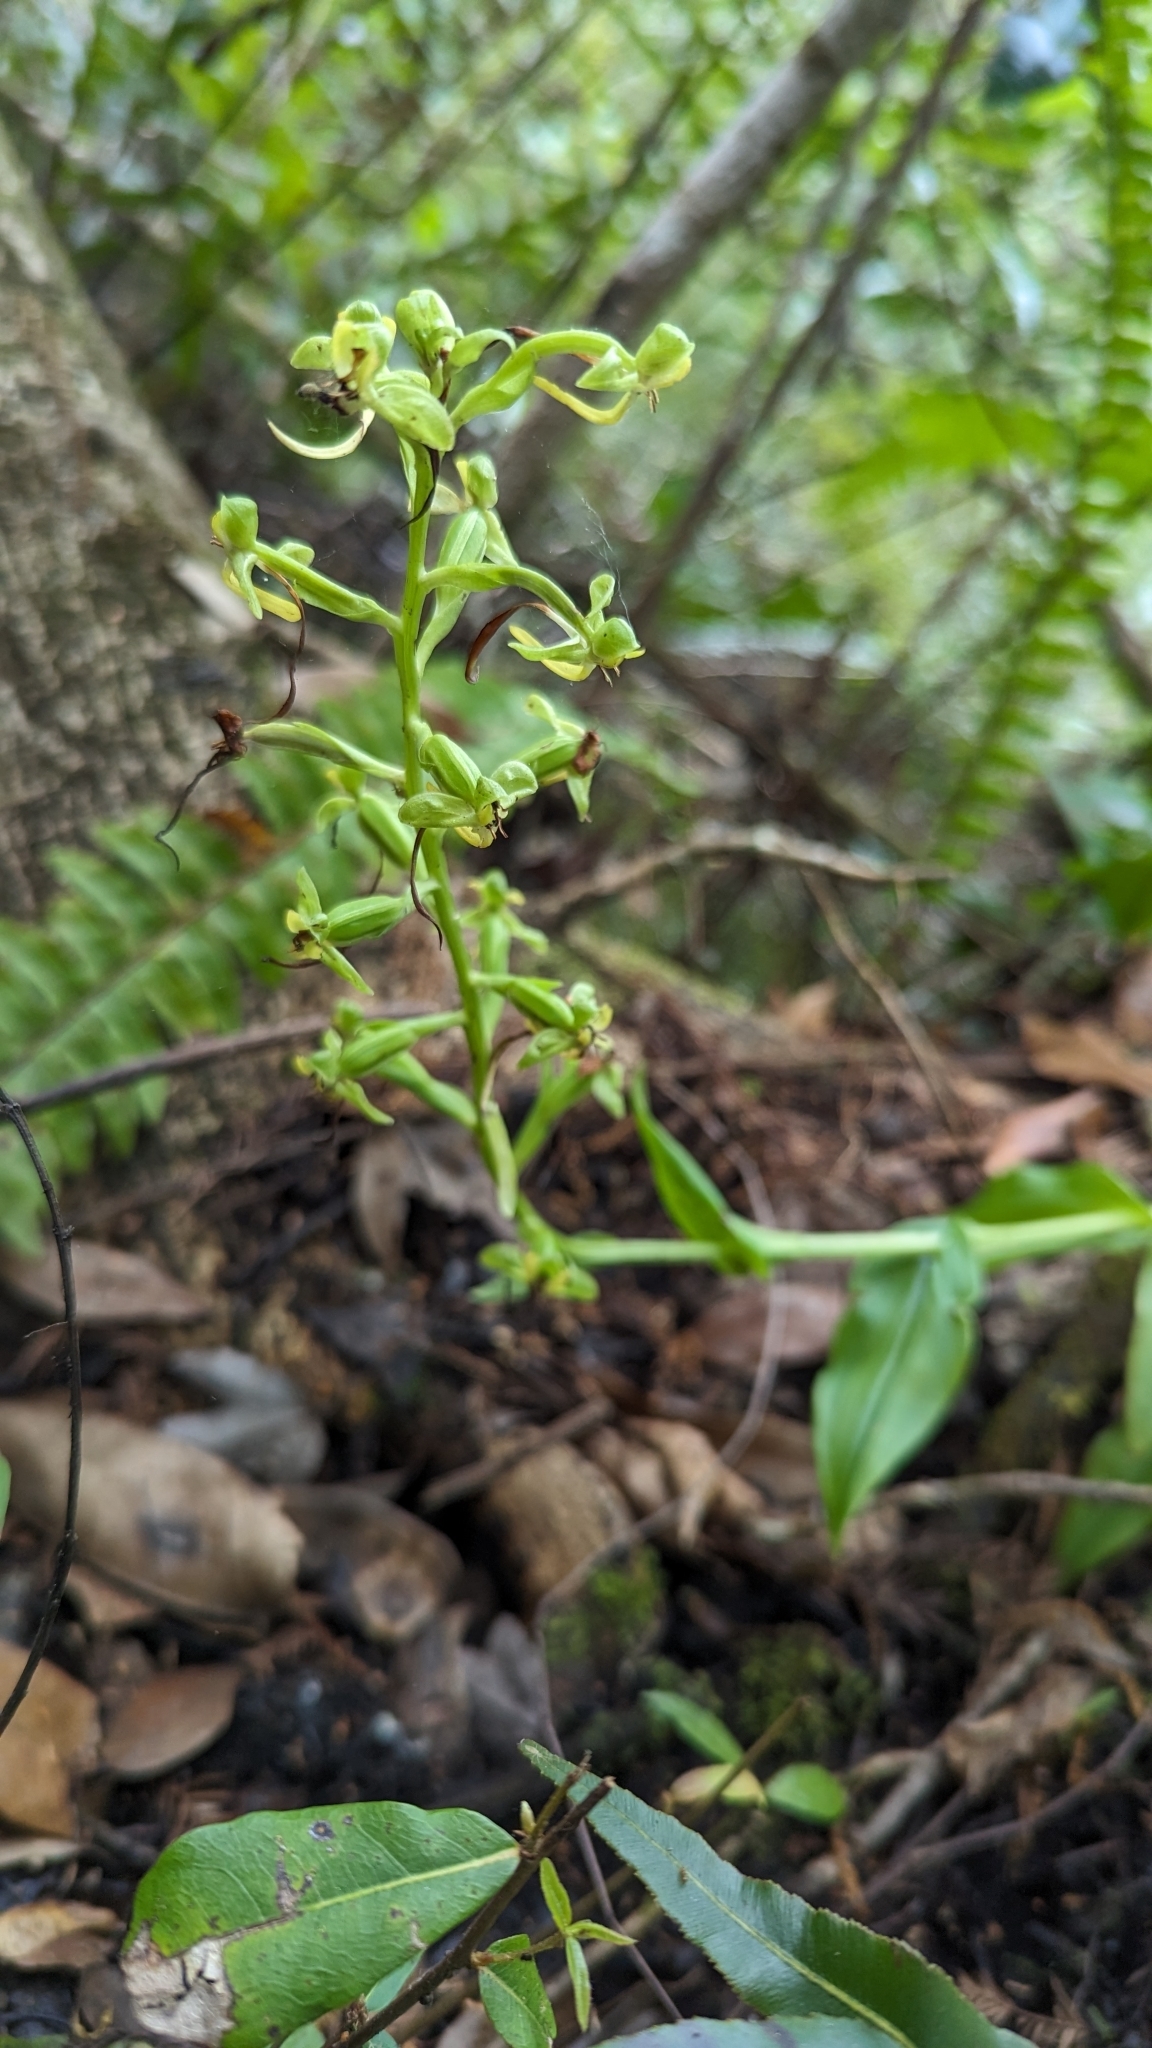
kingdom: Plantae
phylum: Tracheophyta
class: Liliopsida
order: Asparagales
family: Orchidaceae
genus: Habenaria
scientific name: Habenaria floribunda
